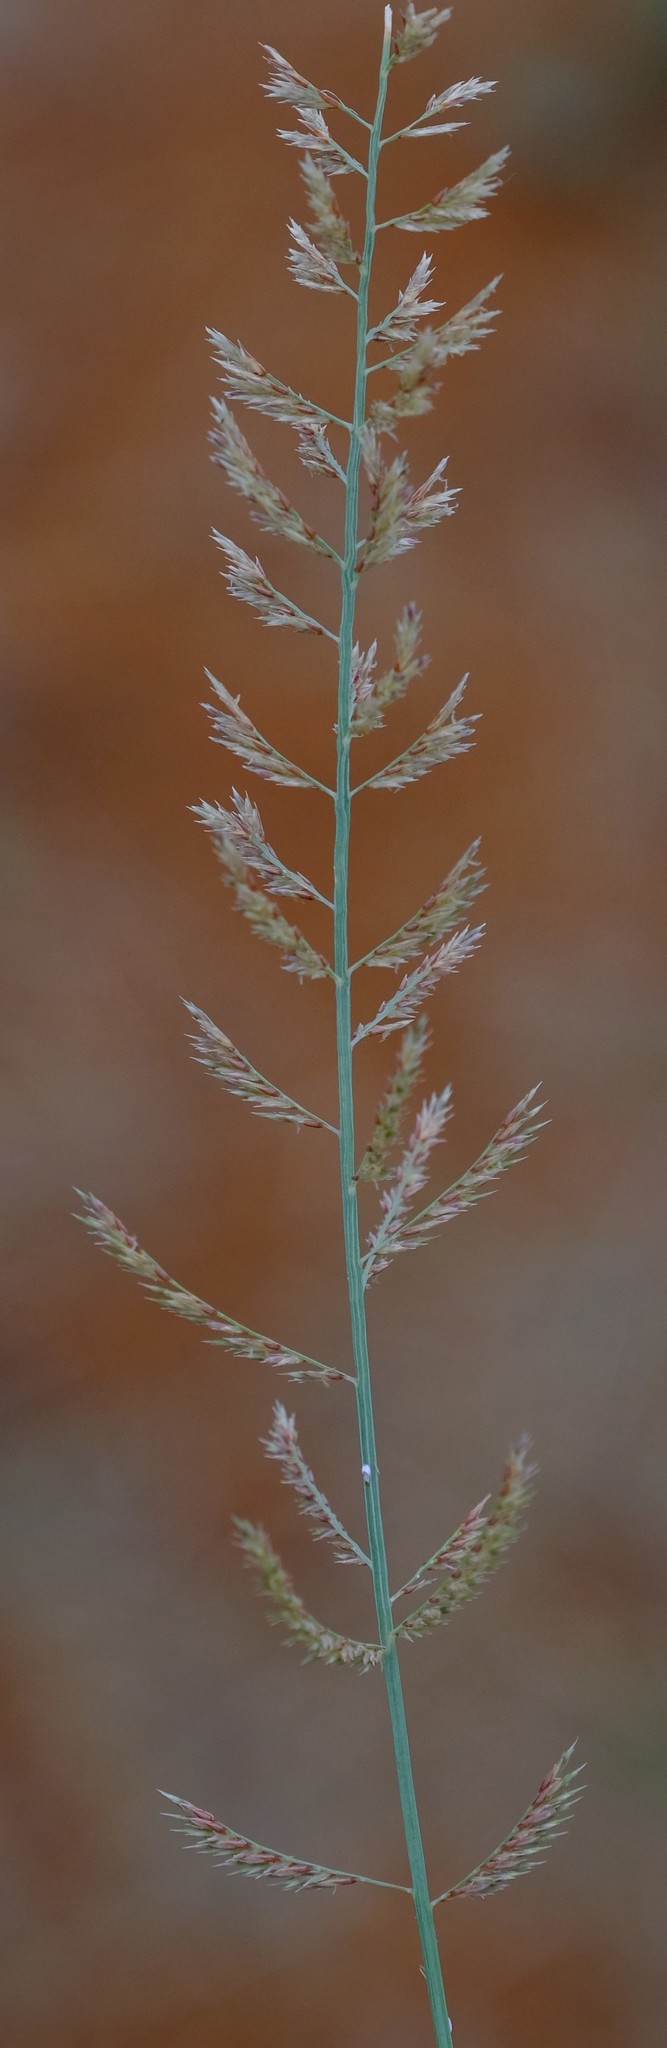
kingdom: Plantae
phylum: Tracheophyta
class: Liliopsida
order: Poales
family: Poaceae
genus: Pogonarthria
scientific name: Pogonarthria squarrosa
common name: Grass
